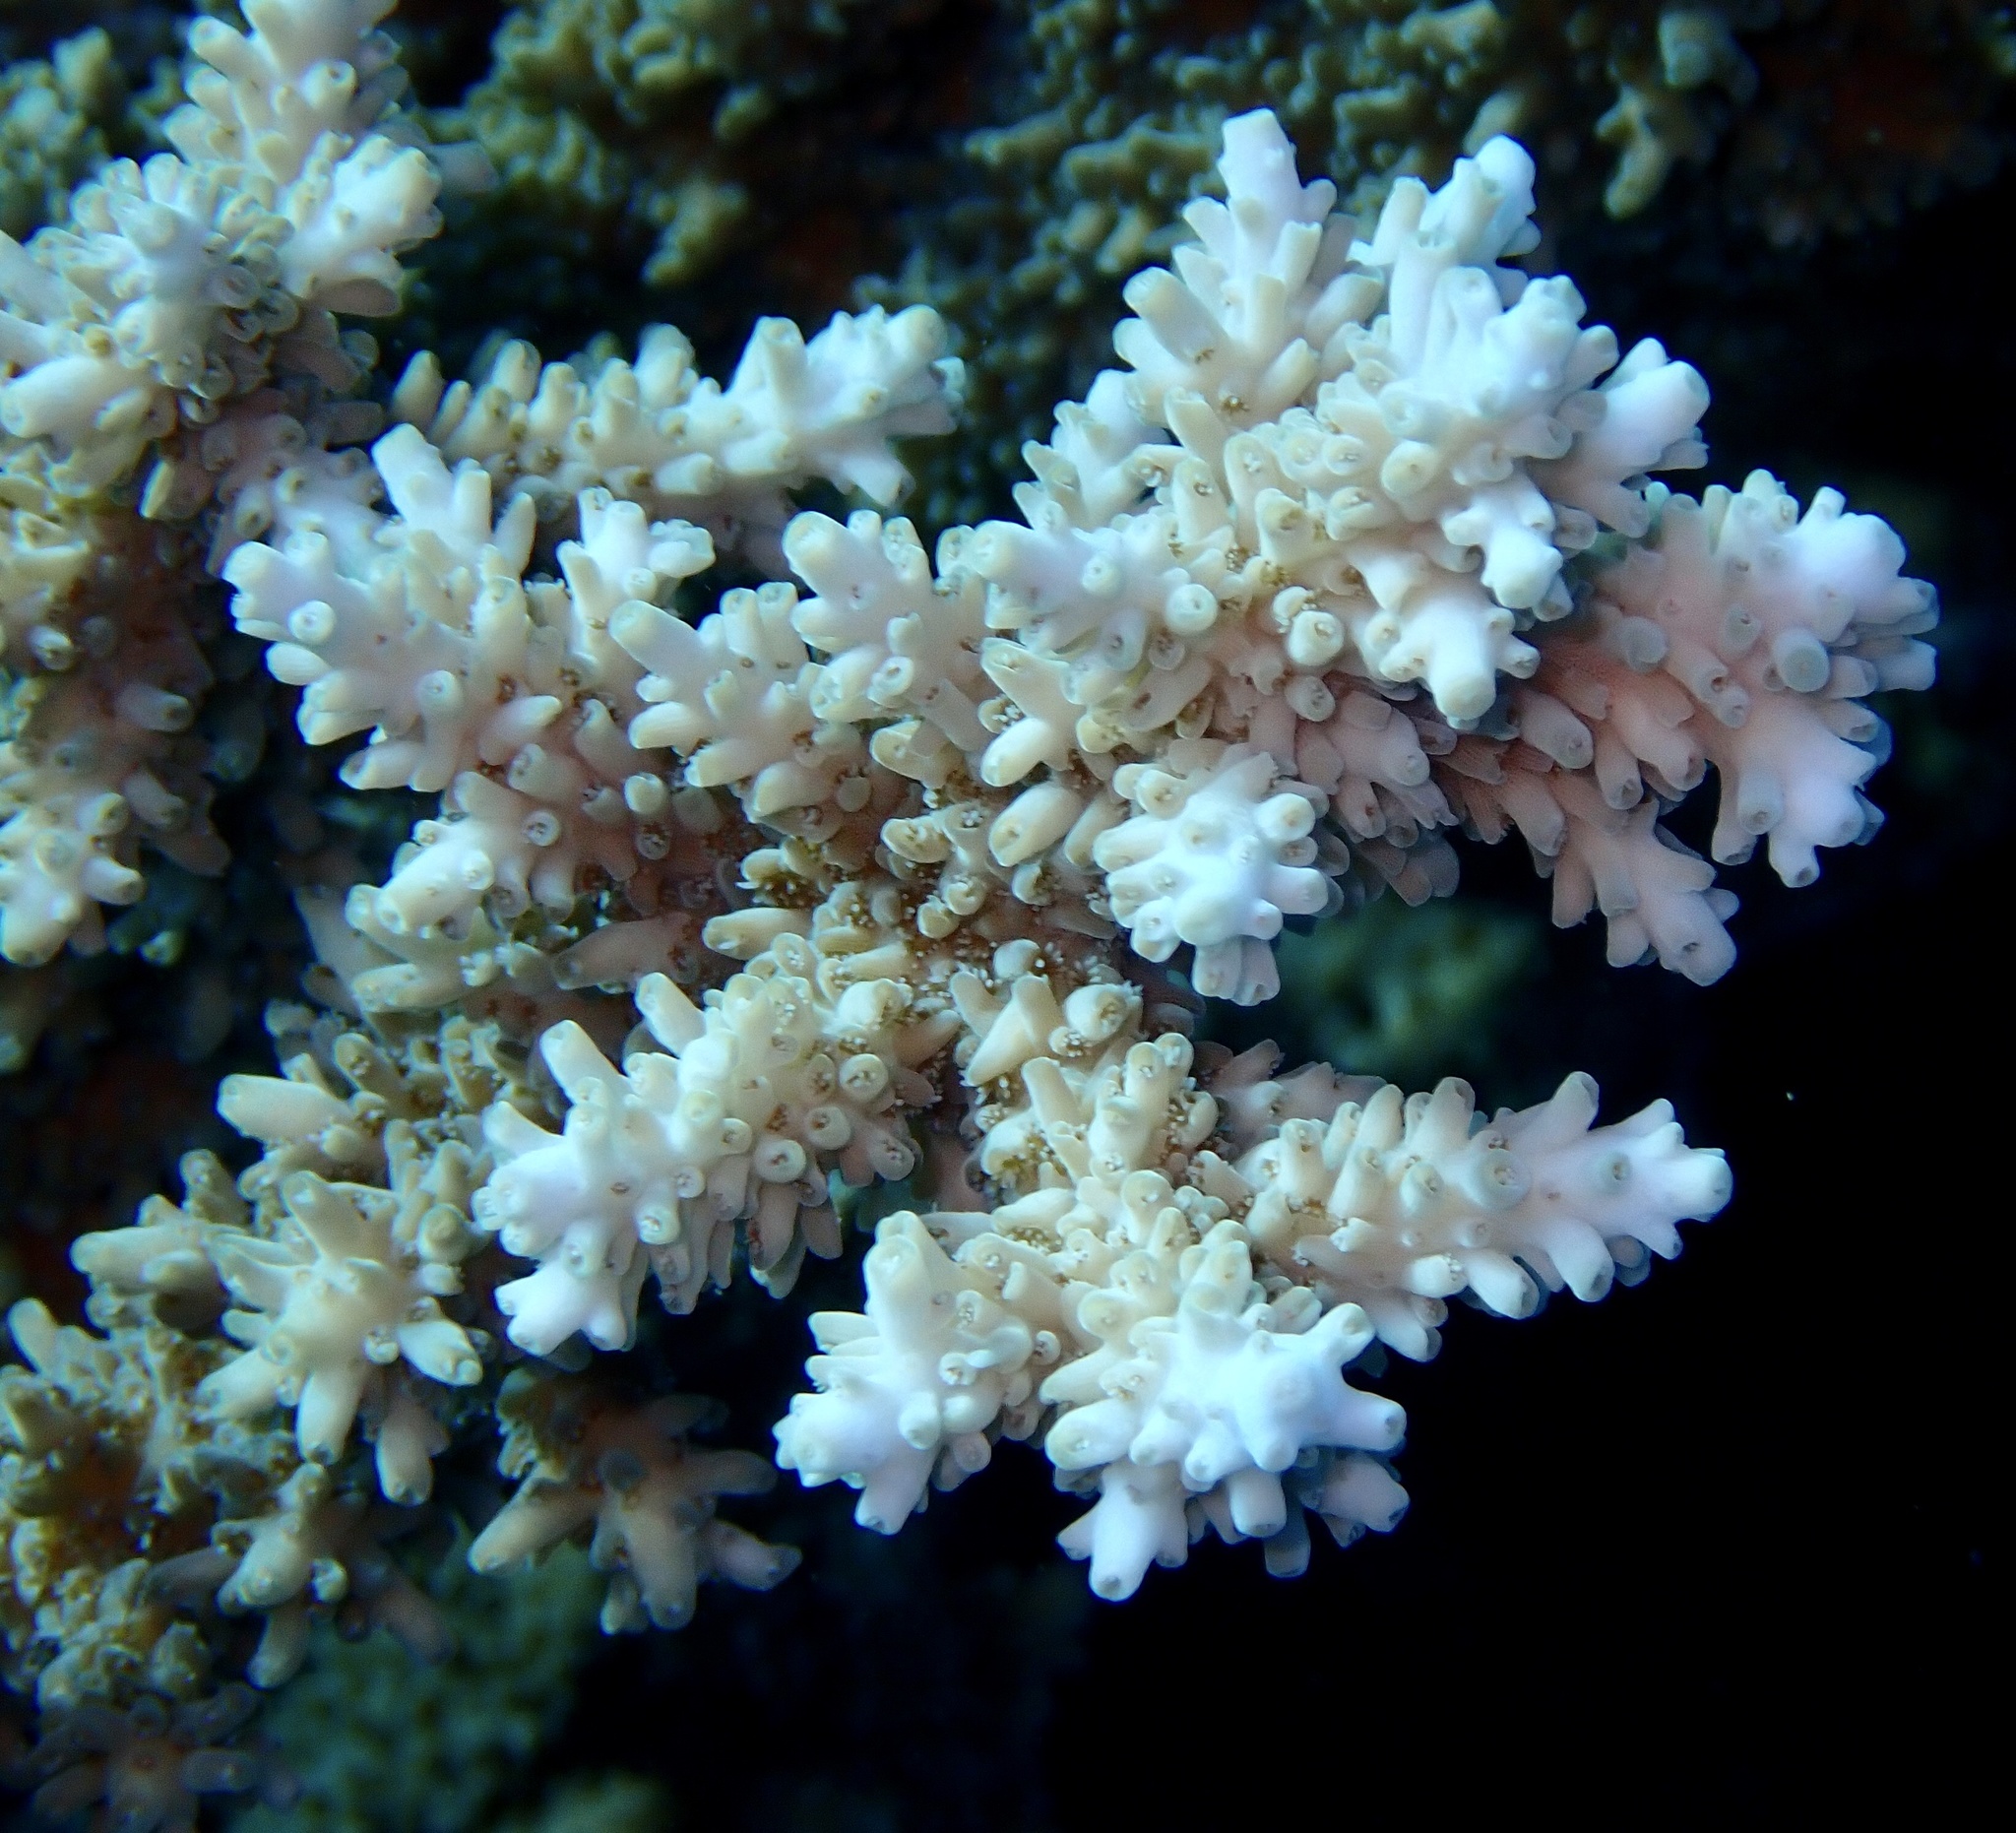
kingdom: Animalia
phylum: Cnidaria
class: Anthozoa
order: Scleractinia
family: Acroporidae
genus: Acropora
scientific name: Acropora
